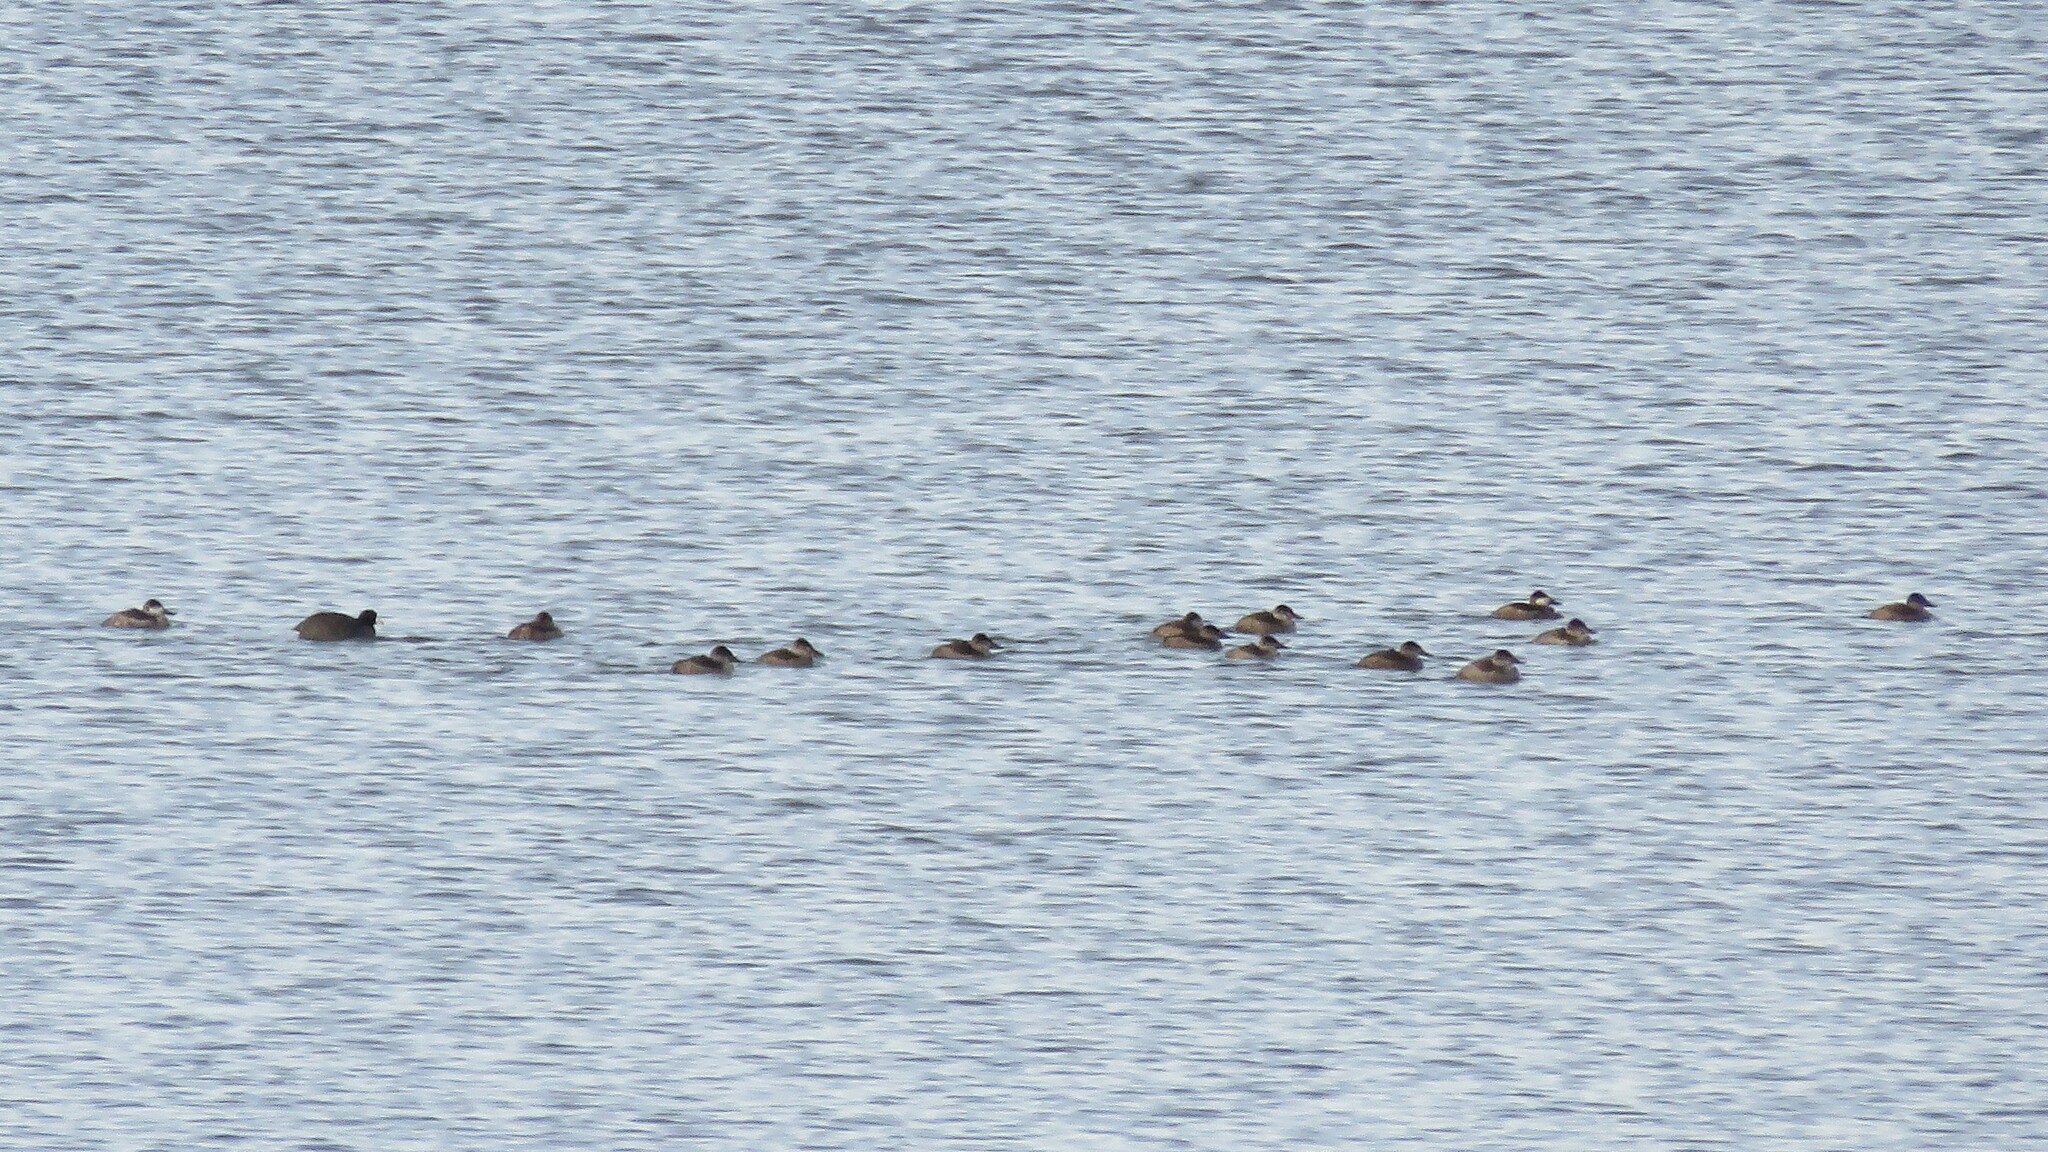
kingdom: Animalia
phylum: Chordata
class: Aves
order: Anseriformes
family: Anatidae
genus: Oxyura
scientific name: Oxyura jamaicensis
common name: Ruddy duck
